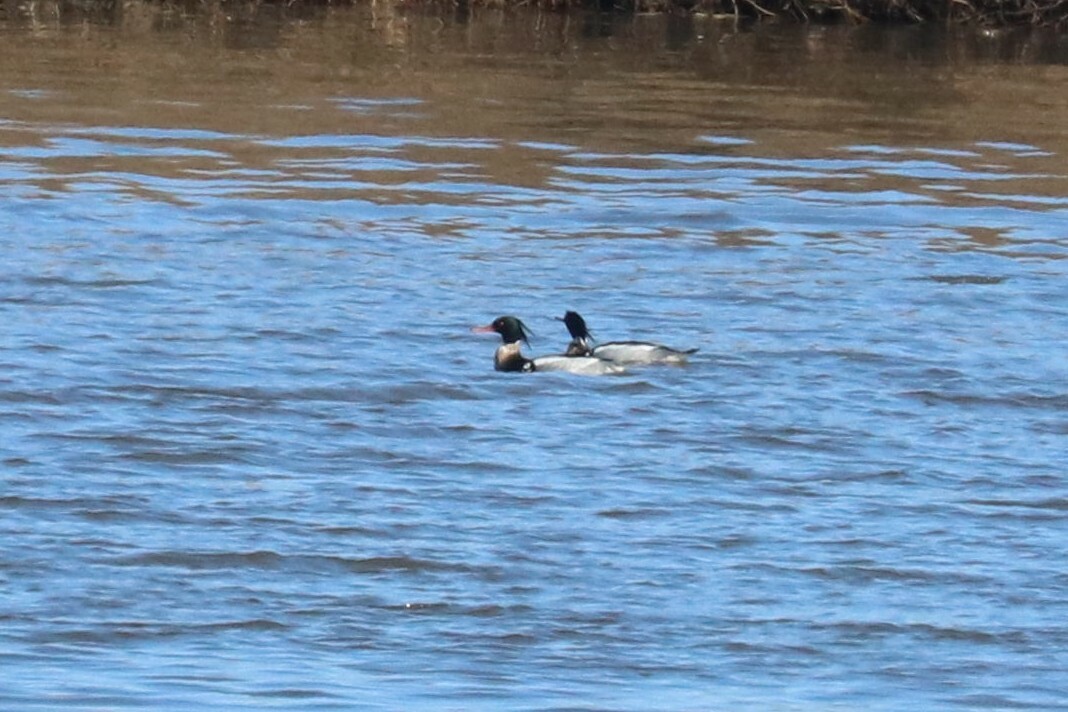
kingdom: Animalia
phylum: Chordata
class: Aves
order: Anseriformes
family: Anatidae
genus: Mergus
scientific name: Mergus serrator
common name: Red-breasted merganser
